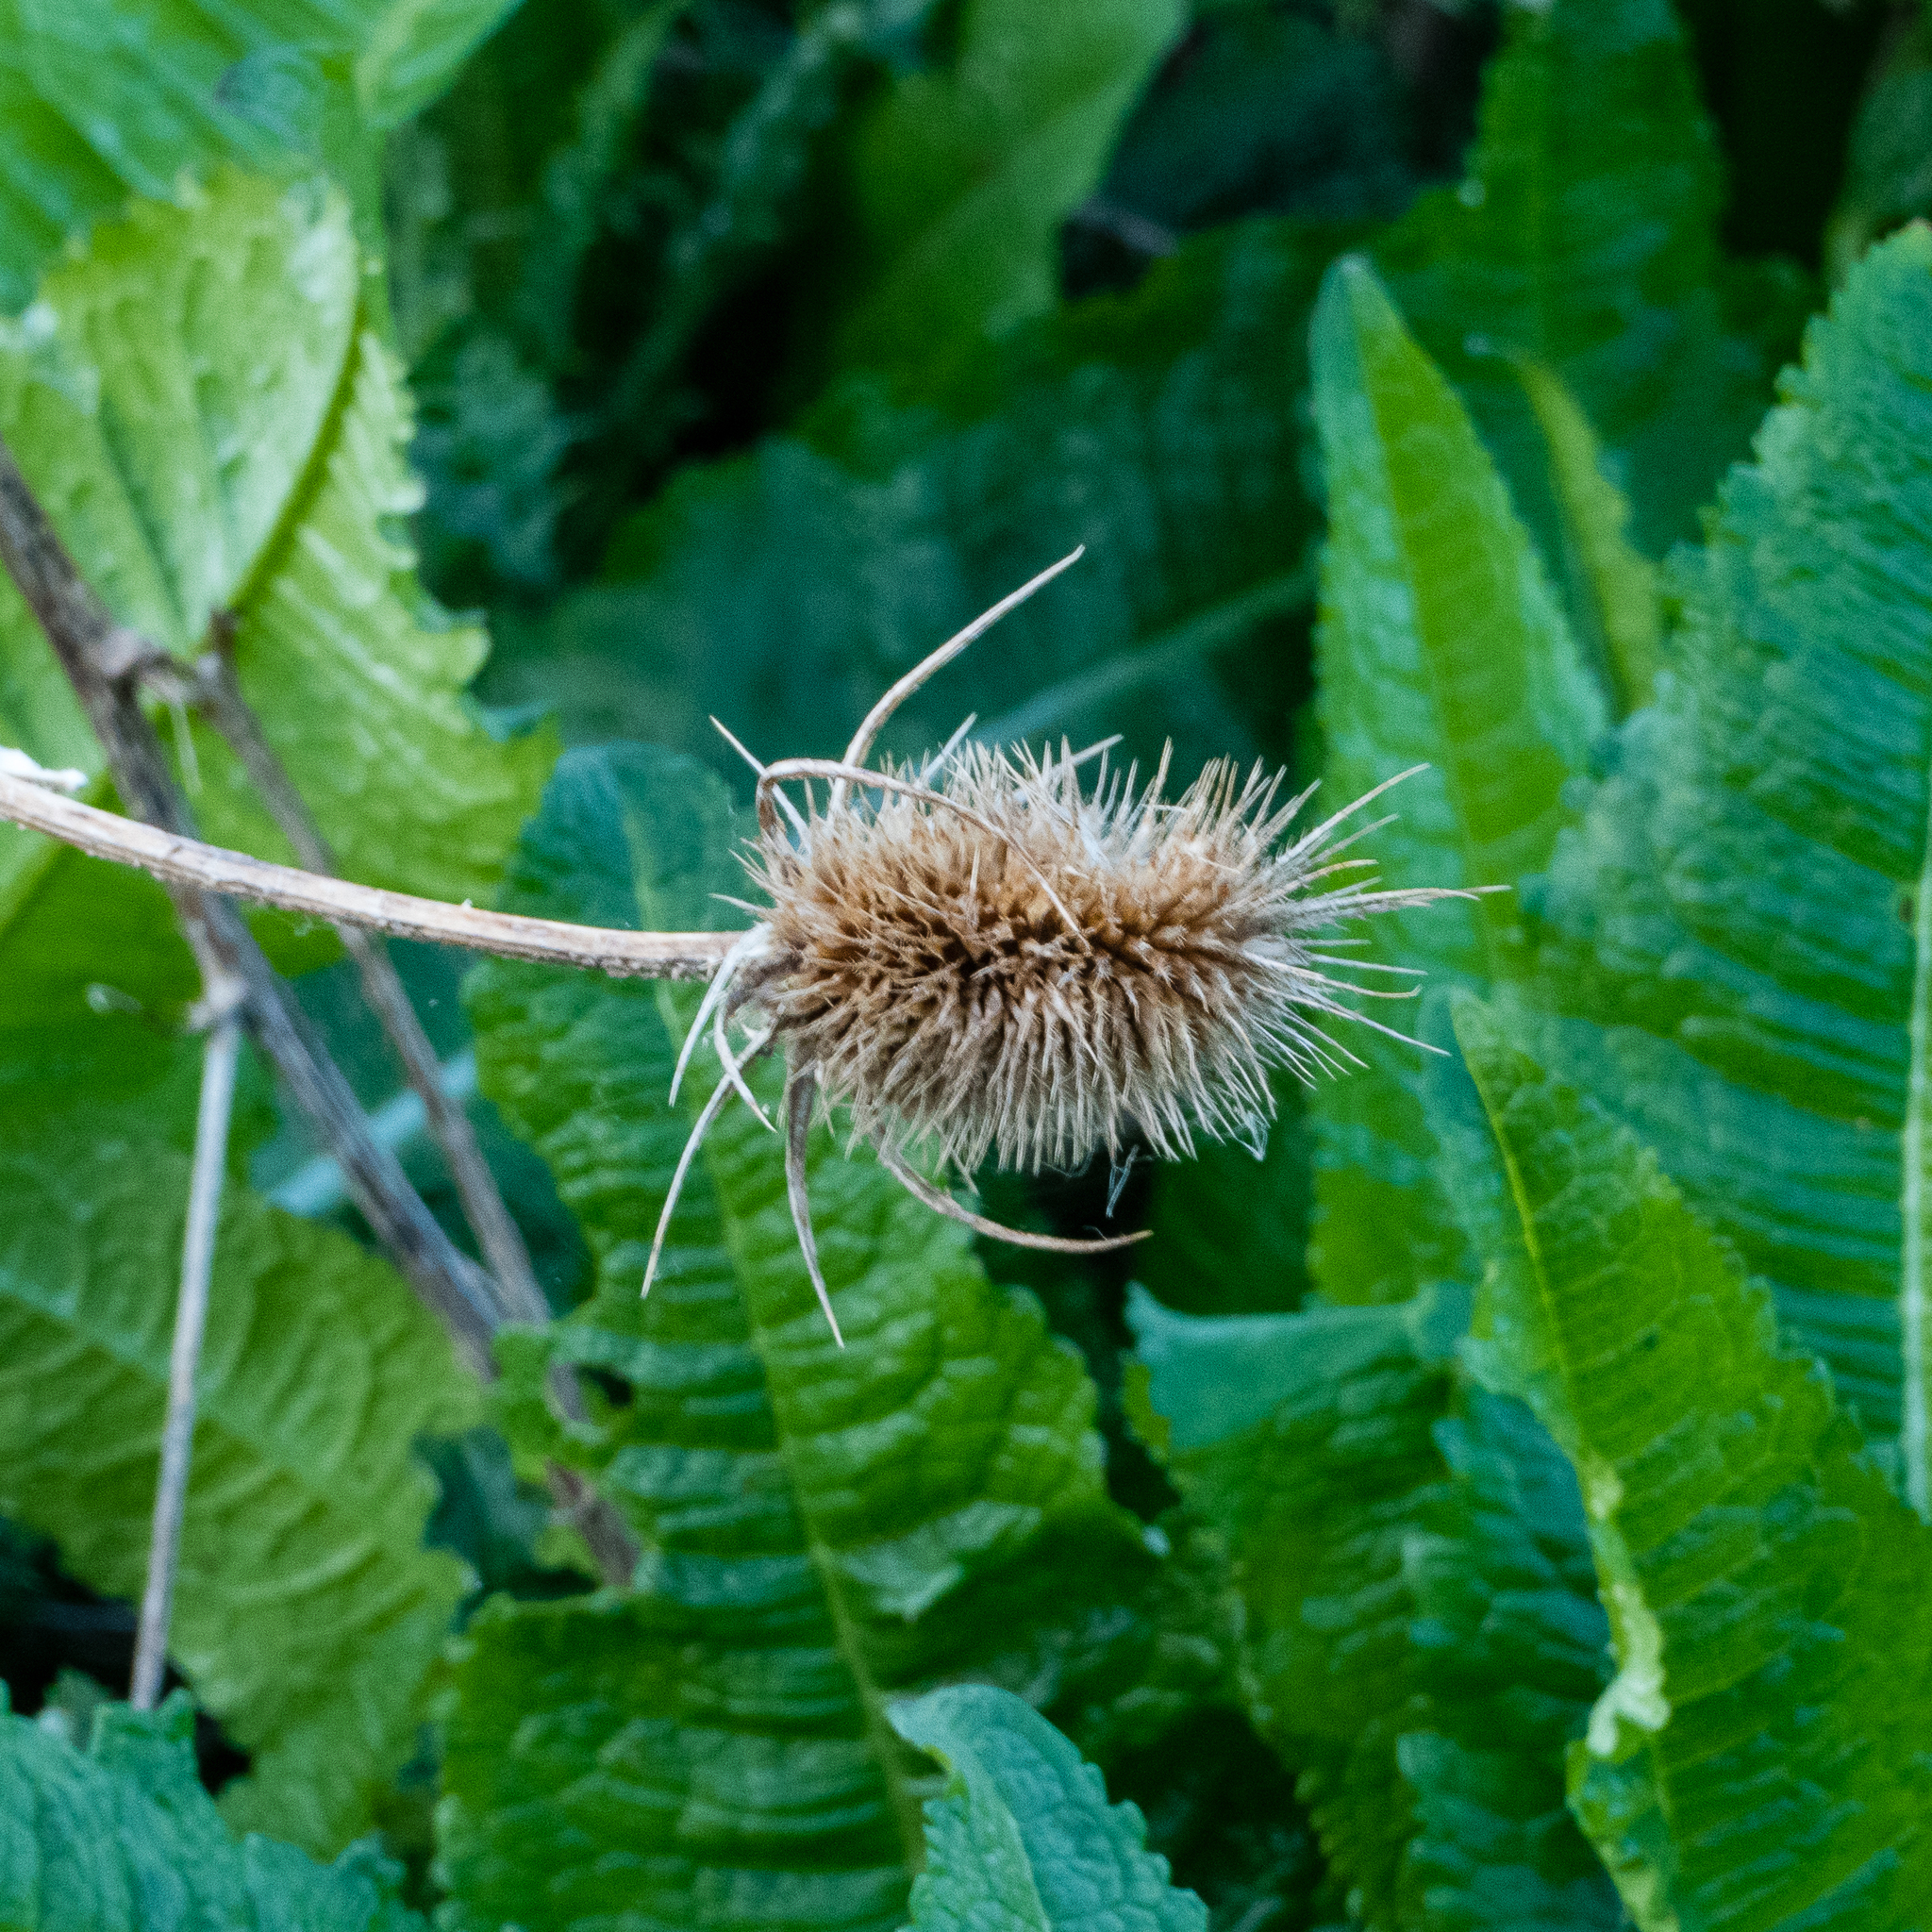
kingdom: Plantae
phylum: Tracheophyta
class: Magnoliopsida
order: Dipsacales
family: Caprifoliaceae
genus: Dipsacus
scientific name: Dipsacus fullonum
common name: Teasel
